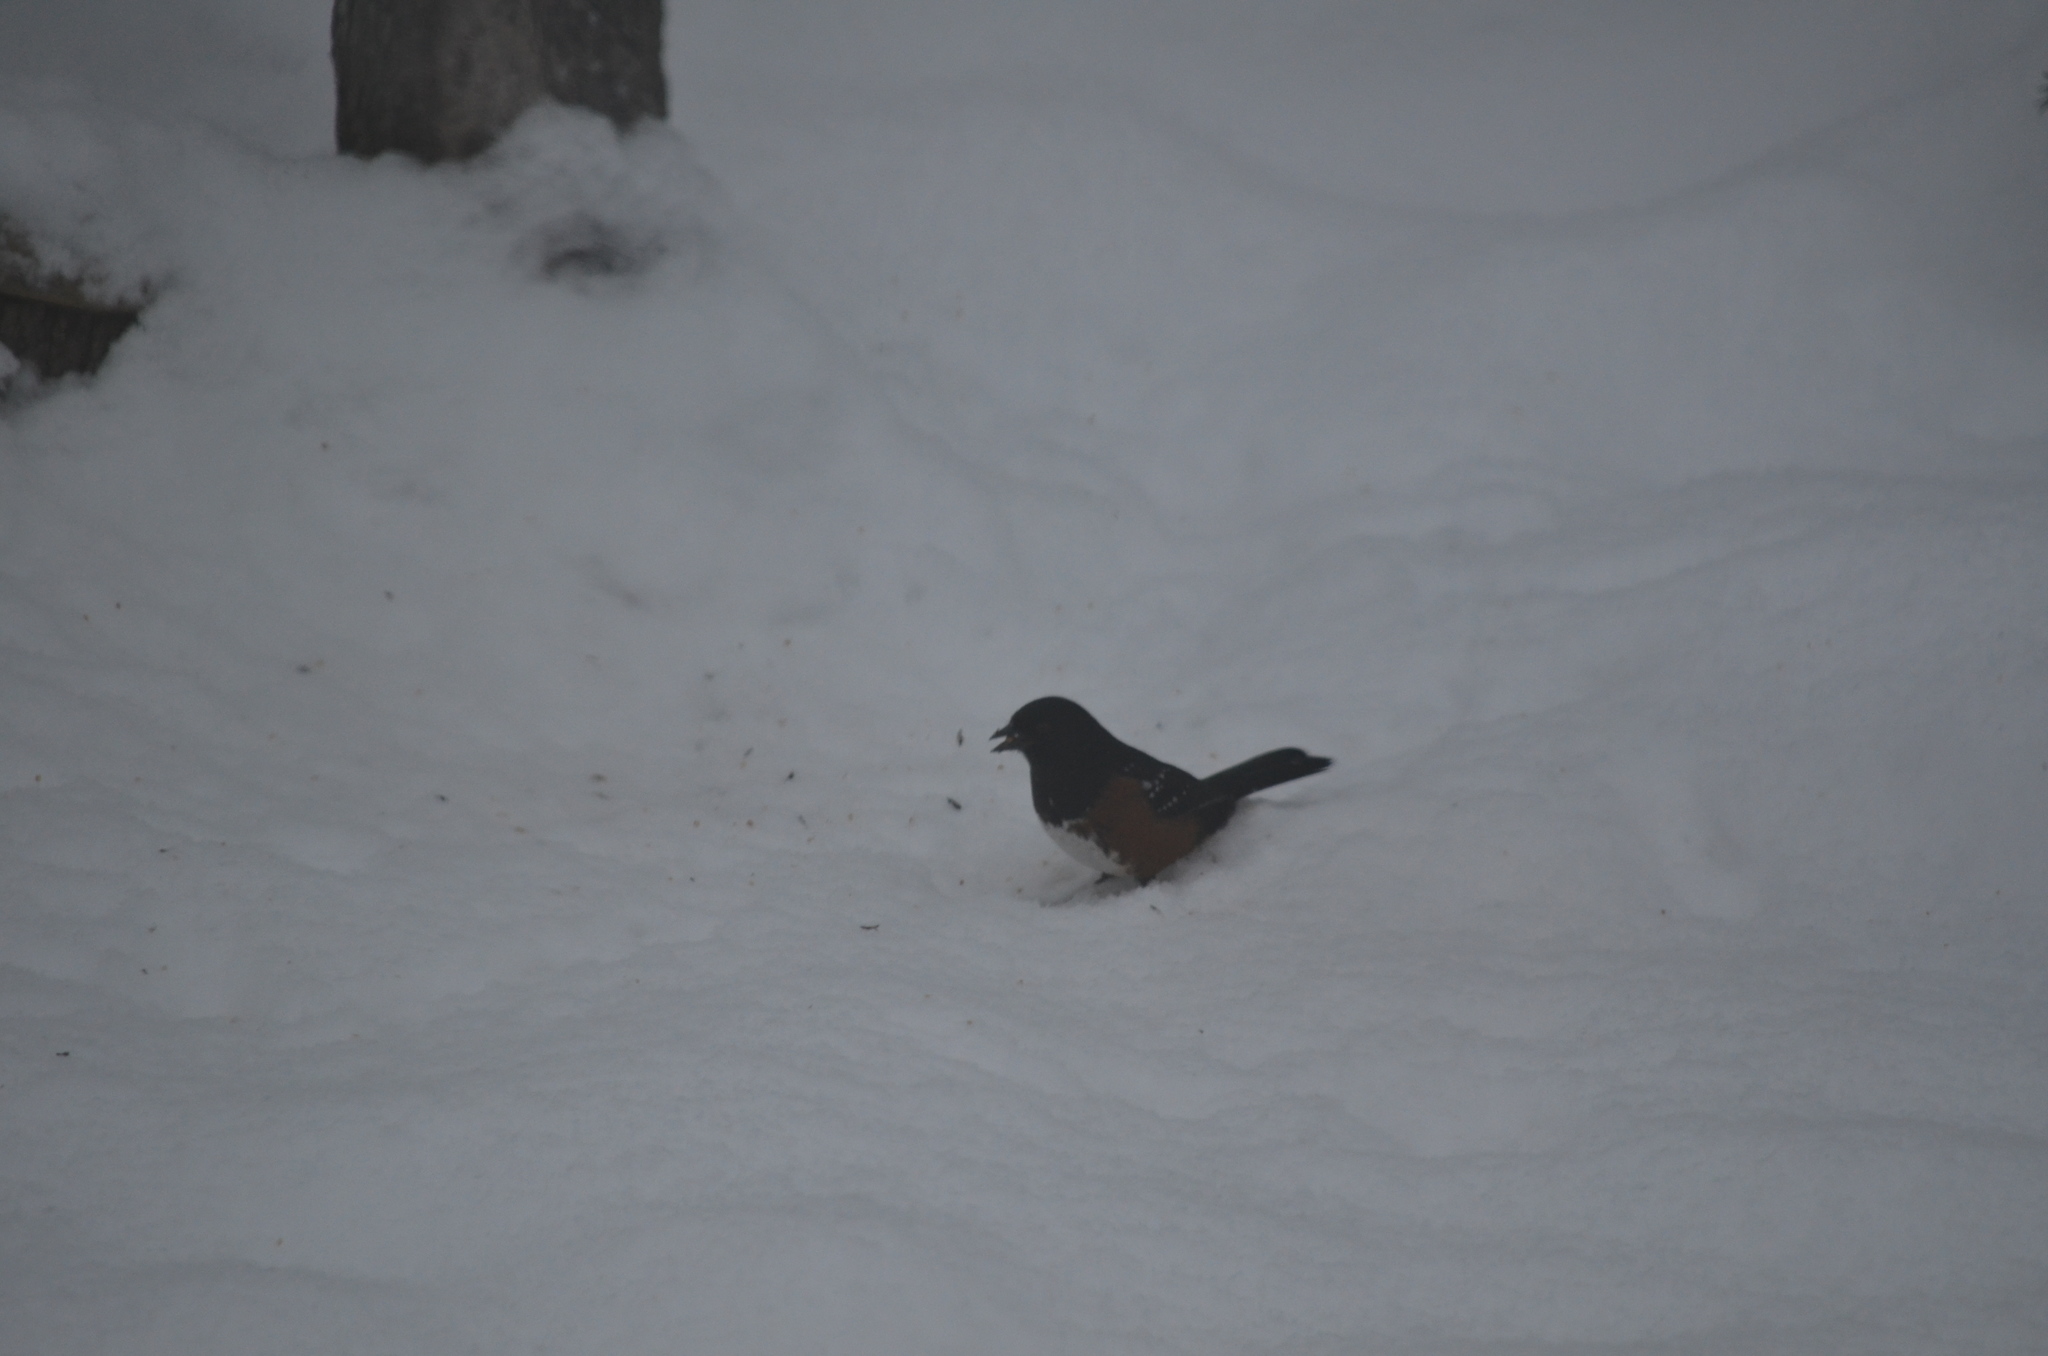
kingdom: Animalia
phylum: Chordata
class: Aves
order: Passeriformes
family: Passerellidae
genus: Pipilo
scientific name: Pipilo maculatus
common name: Spotted towhee
